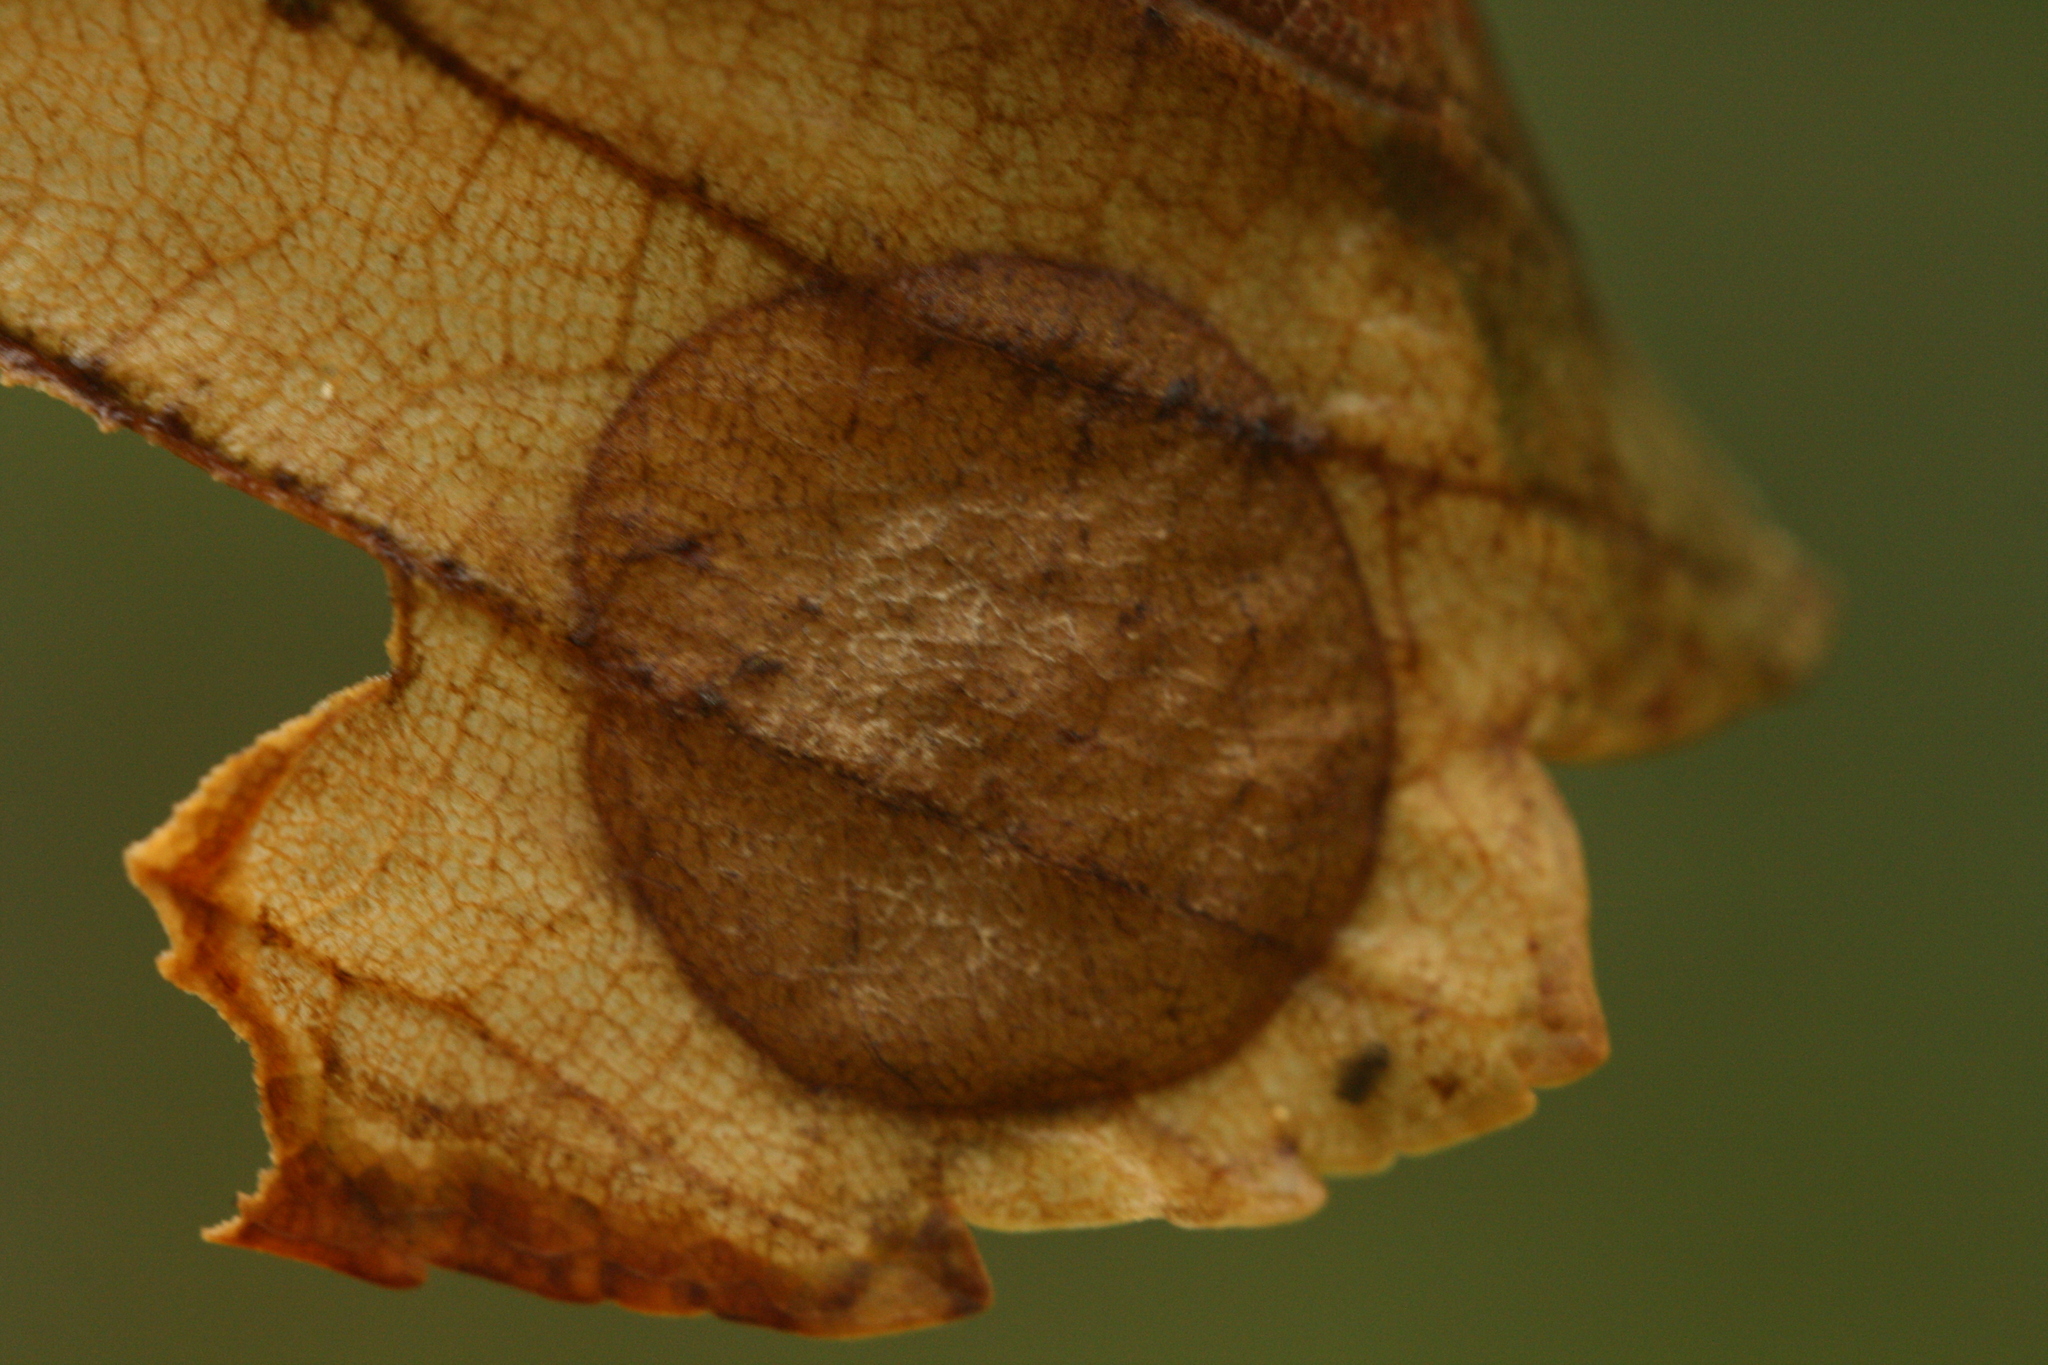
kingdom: Animalia
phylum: Arthropoda
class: Insecta
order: Hymenoptera
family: Tenthredinidae
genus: Heterarthrus
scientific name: Heterarthrus leucomela
